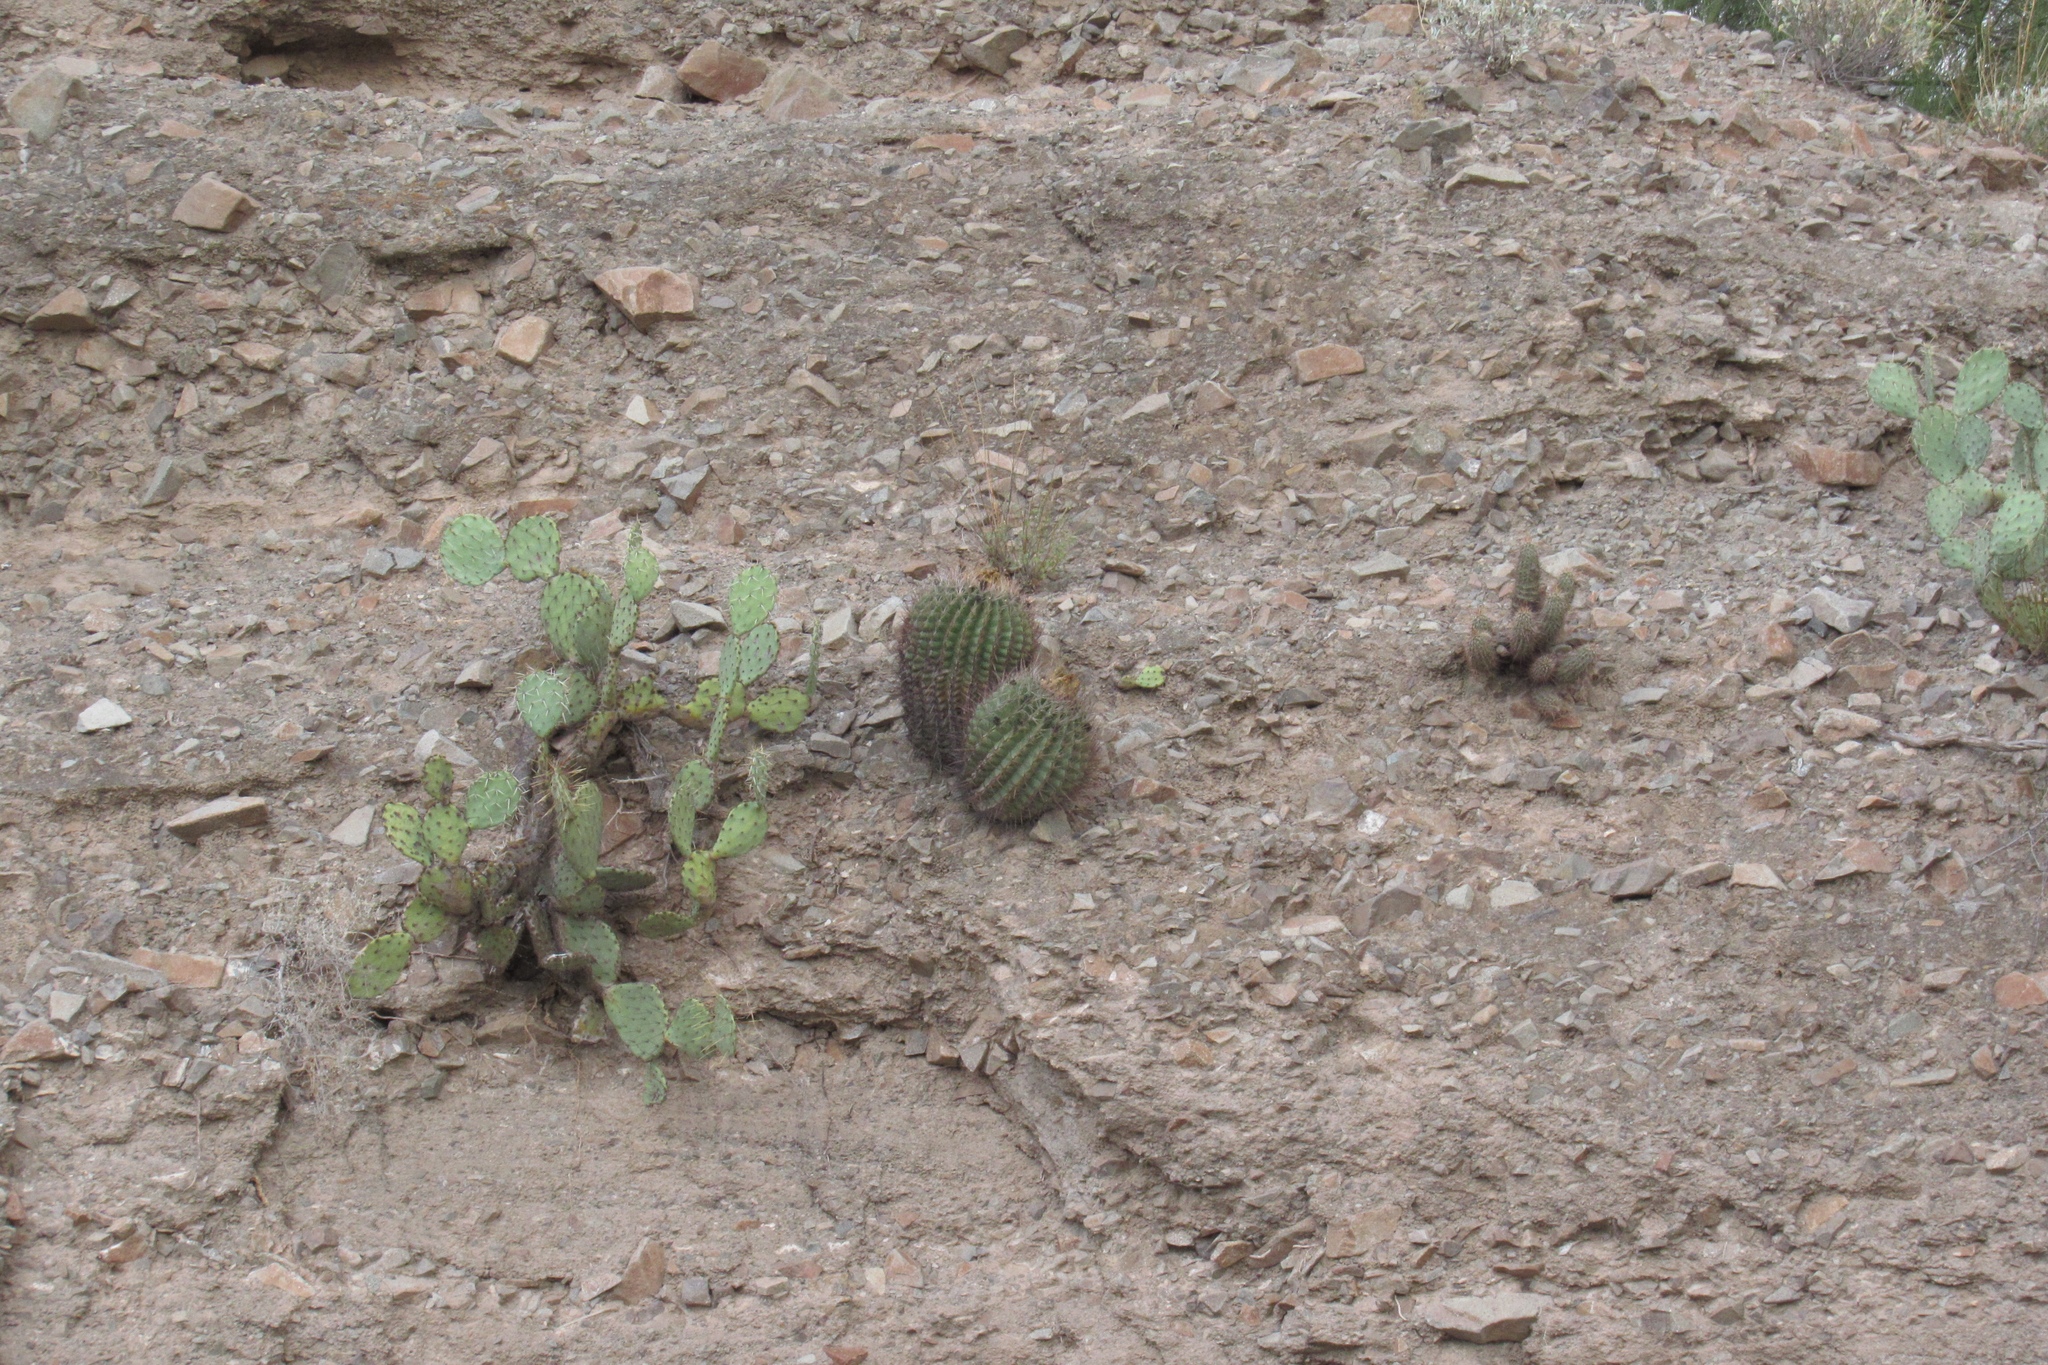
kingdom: Plantae
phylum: Tracheophyta
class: Magnoliopsida
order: Caryophyllales
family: Cactaceae
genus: Ferocactus
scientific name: Ferocactus wislizeni
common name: Candy barrel cactus
